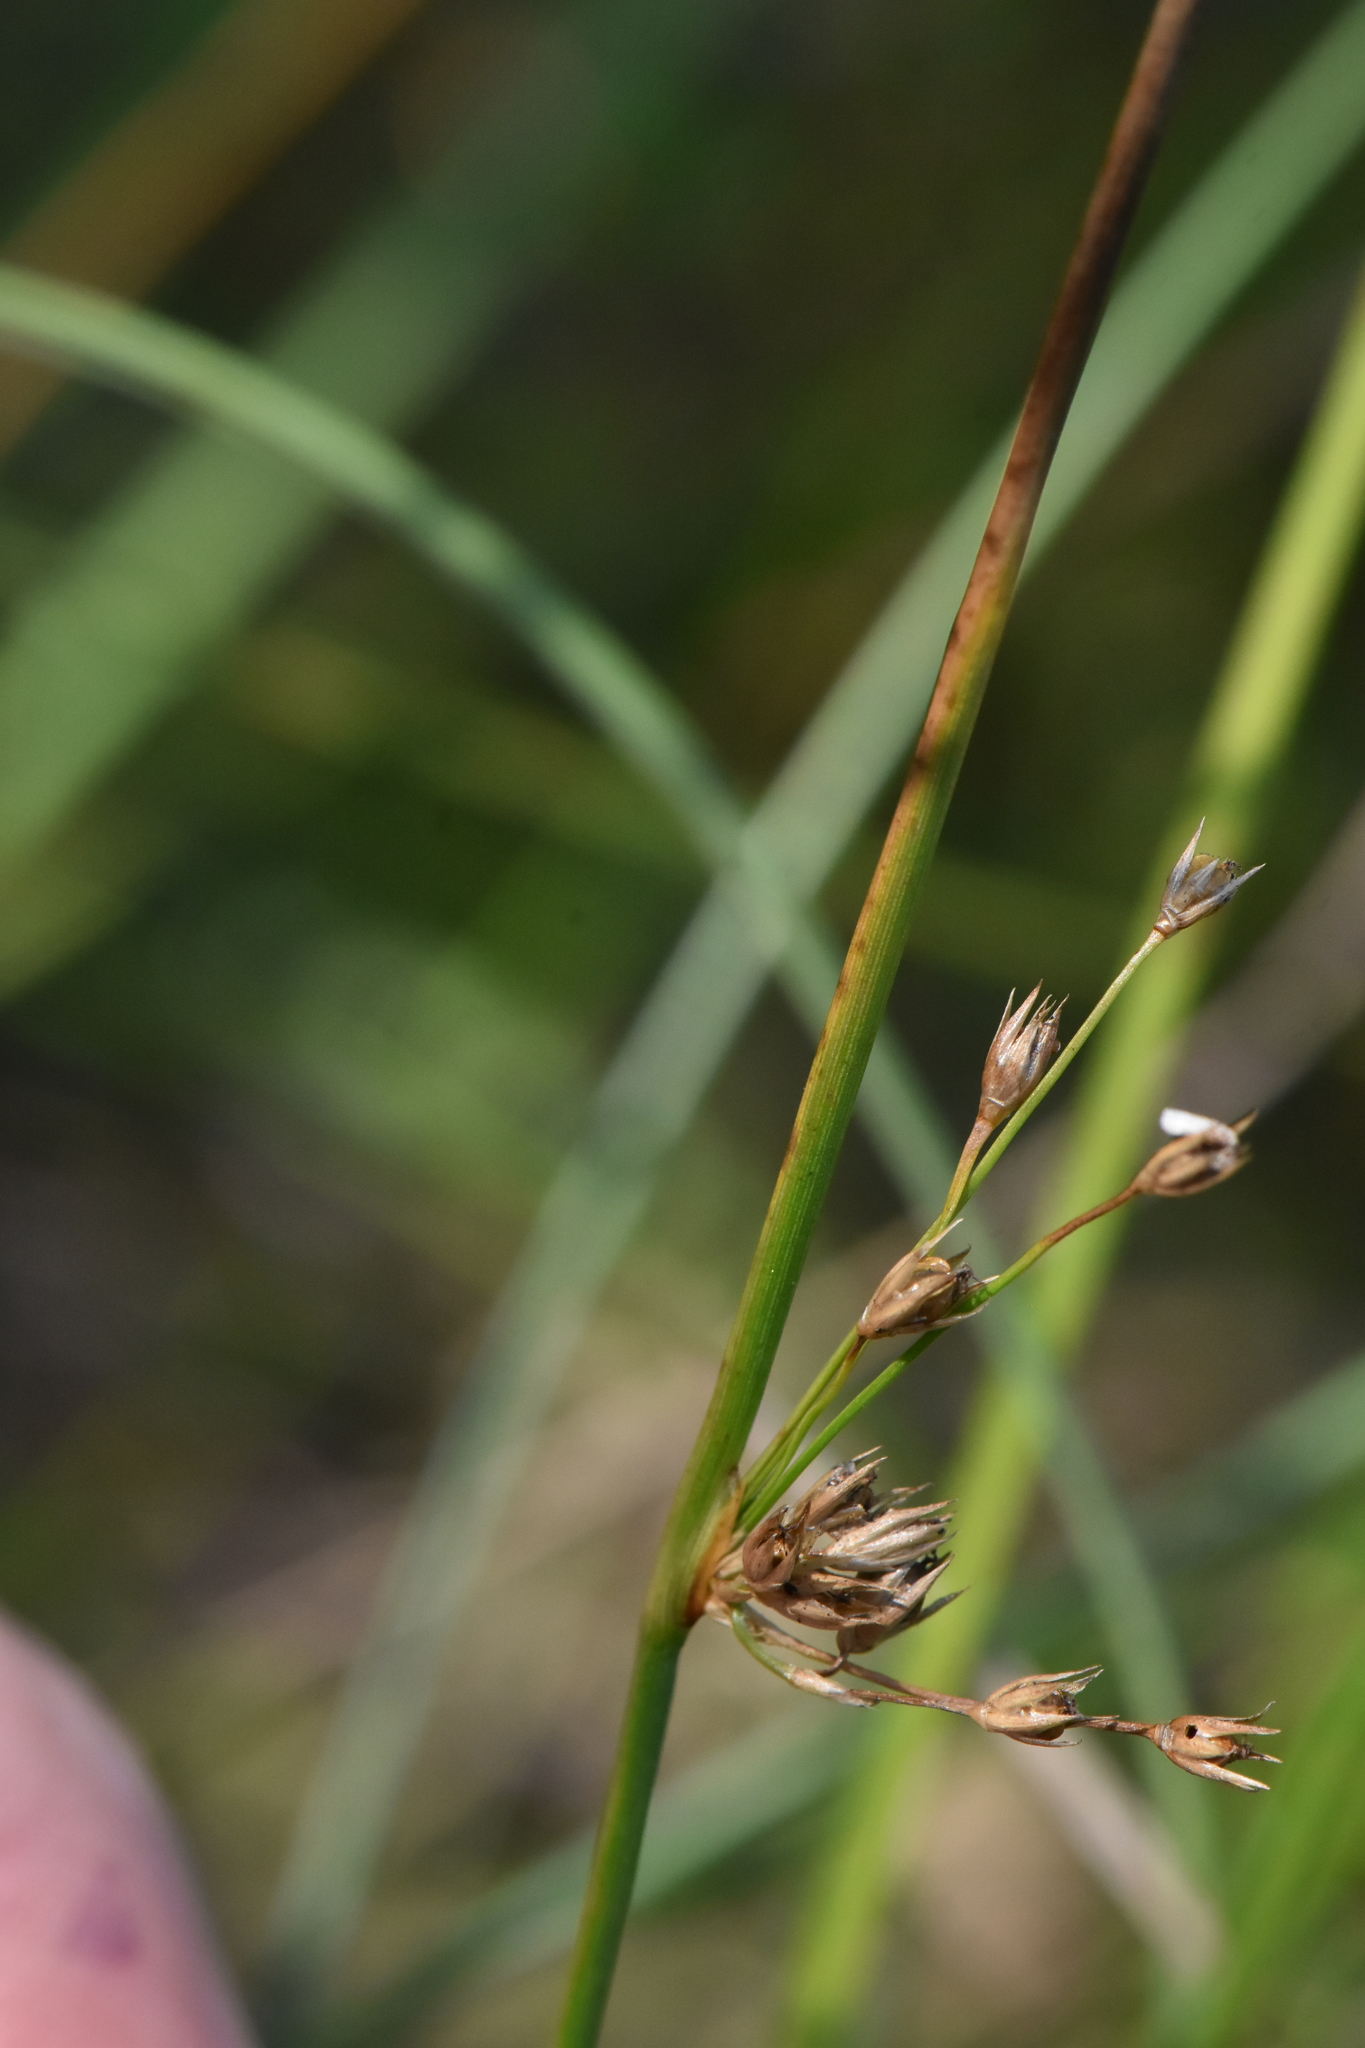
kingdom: Plantae
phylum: Tracheophyta
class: Liliopsida
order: Poales
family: Juncaceae
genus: Juncus
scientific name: Juncus effusus
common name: Soft rush
